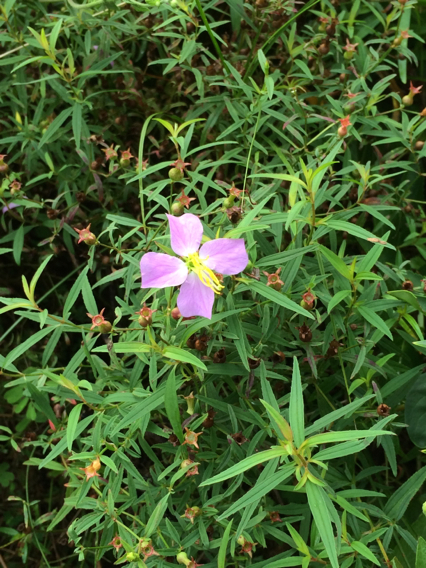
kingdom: Plantae
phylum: Tracheophyta
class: Magnoliopsida
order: Myrtales
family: Melastomataceae
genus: Rhexia
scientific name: Rhexia mariana
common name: Dull meadow-pitcher
